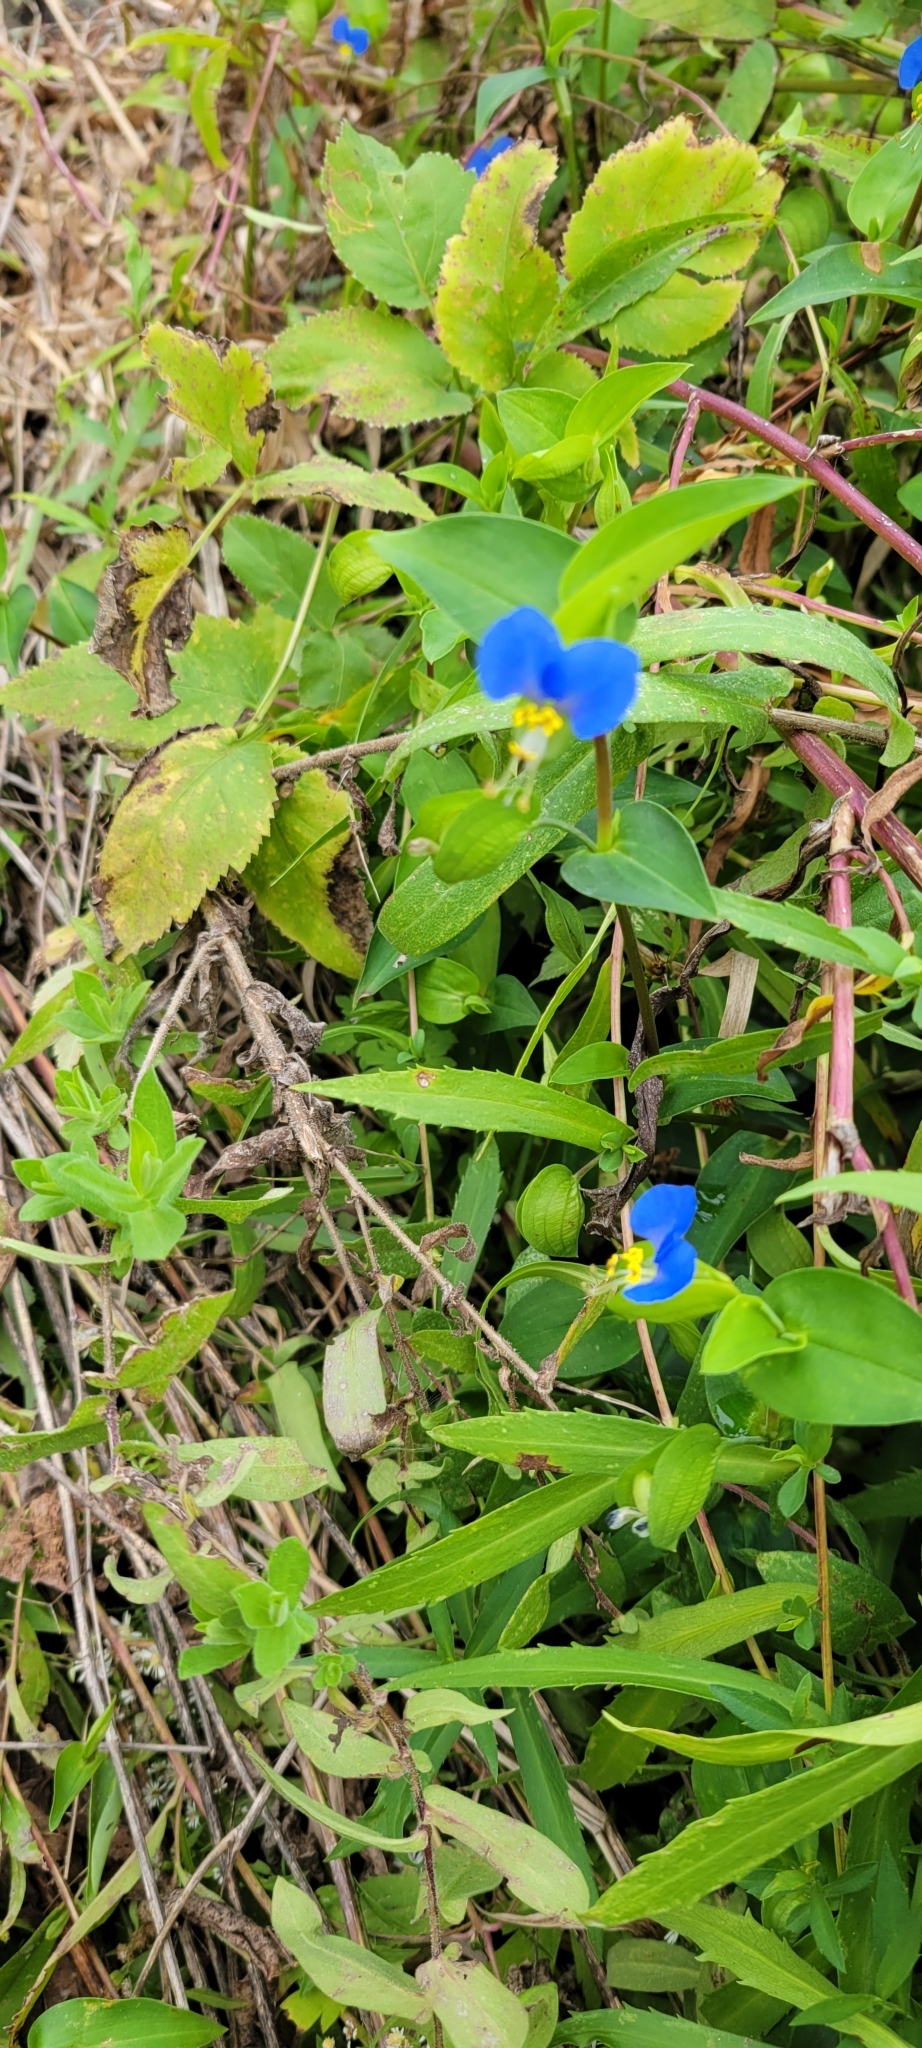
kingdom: Plantae
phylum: Tracheophyta
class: Liliopsida
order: Commelinales
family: Commelinaceae
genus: Commelina
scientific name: Commelina communis
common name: Asiatic dayflower
